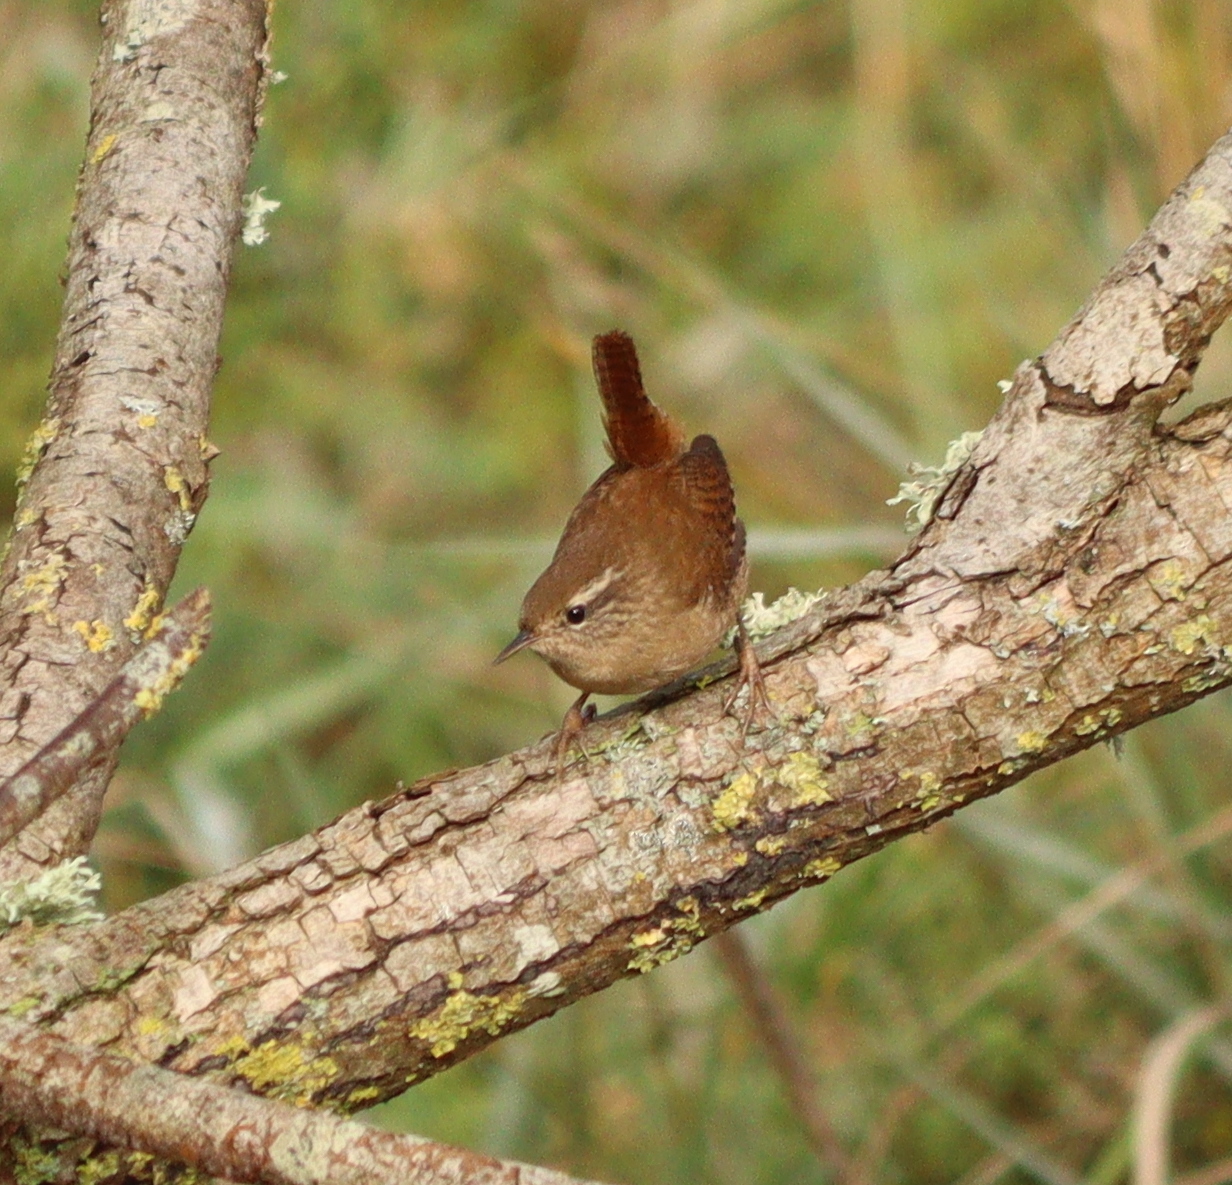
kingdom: Animalia
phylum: Chordata
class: Aves
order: Passeriformes
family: Troglodytidae
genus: Troglodytes
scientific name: Troglodytes troglodytes
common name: Eurasian wren
